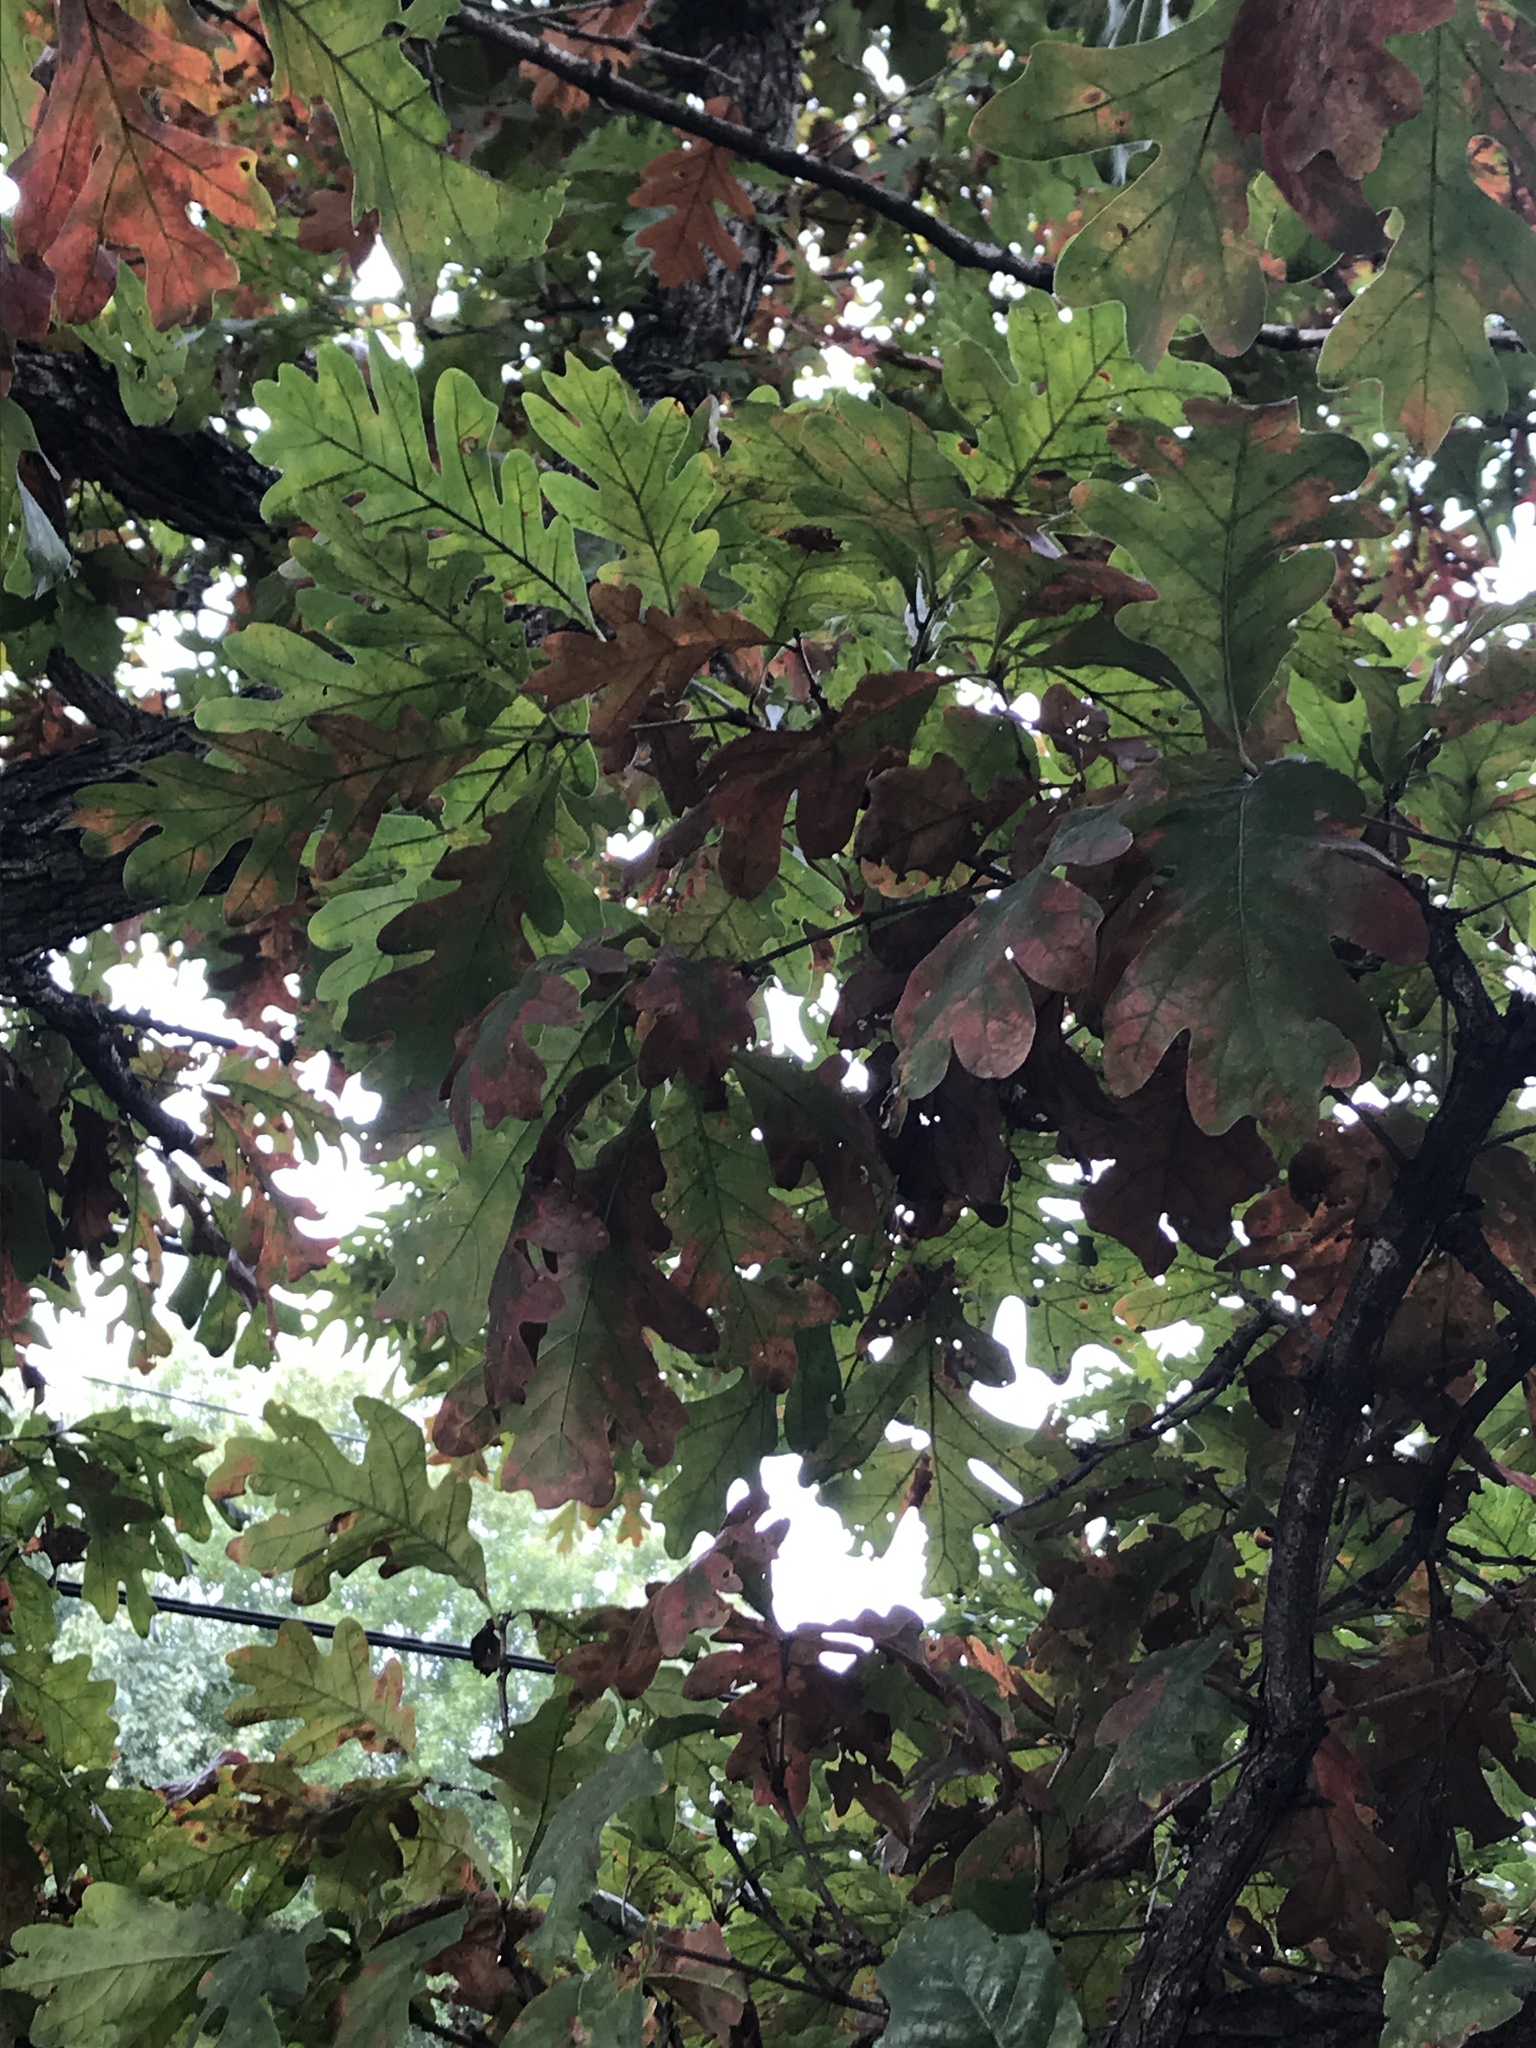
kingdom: Plantae
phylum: Tracheophyta
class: Magnoliopsida
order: Fagales
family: Fagaceae
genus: Quercus
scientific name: Quercus alba
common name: White oak
